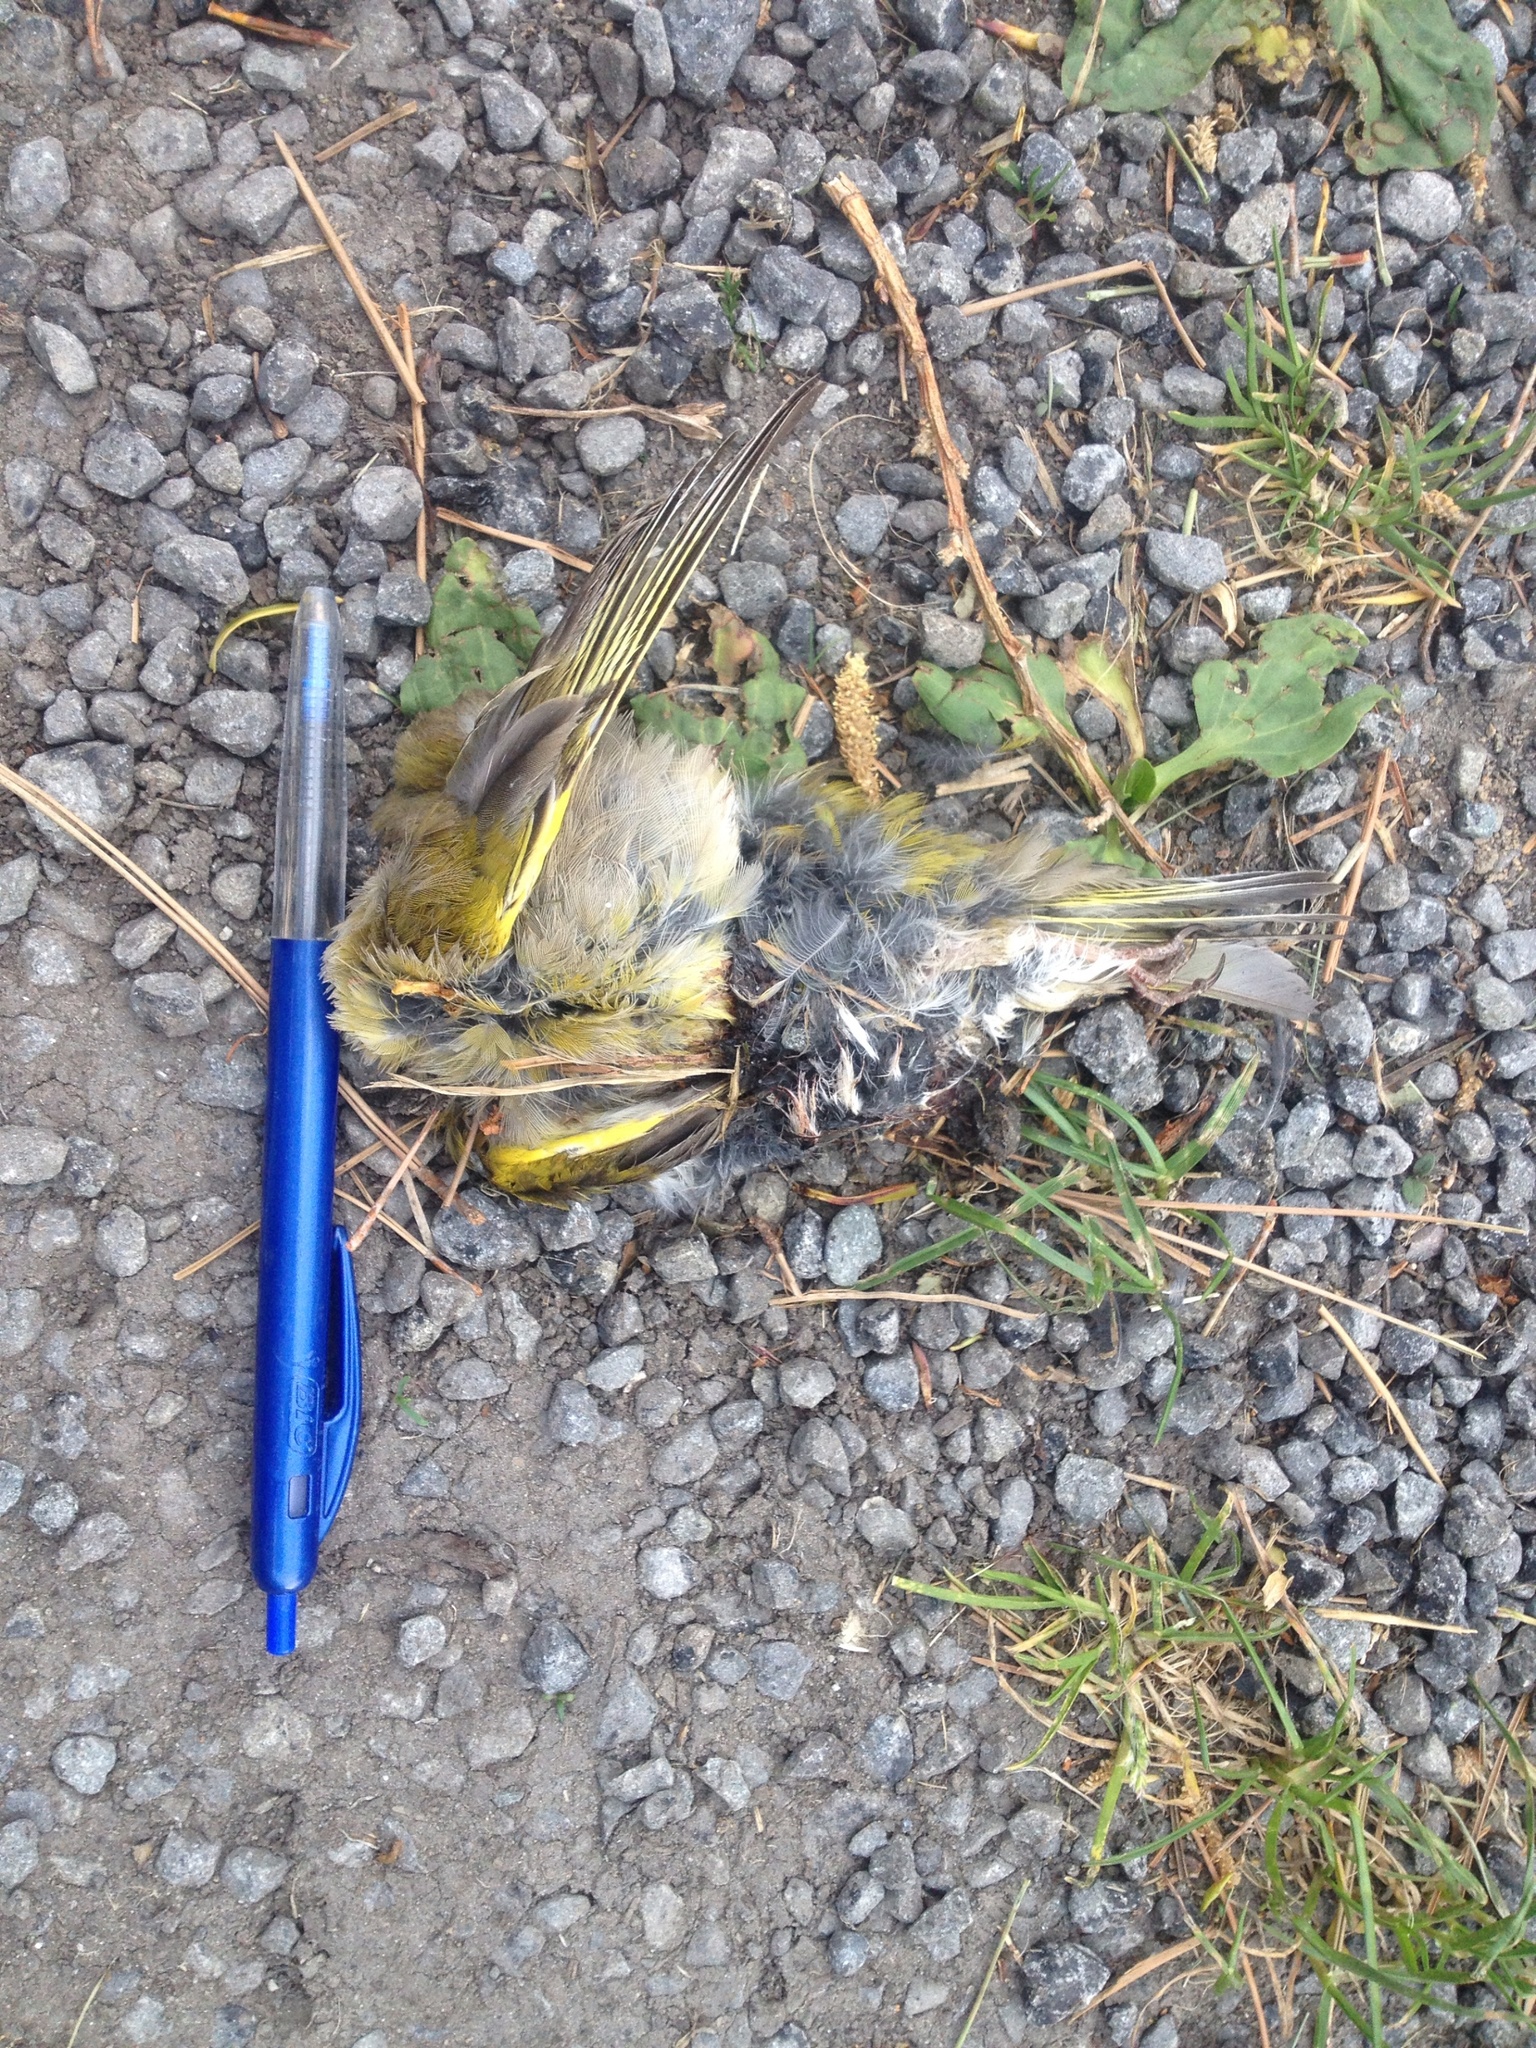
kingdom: Plantae
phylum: Tracheophyta
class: Liliopsida
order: Poales
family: Poaceae
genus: Chloris
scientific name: Chloris chloris
